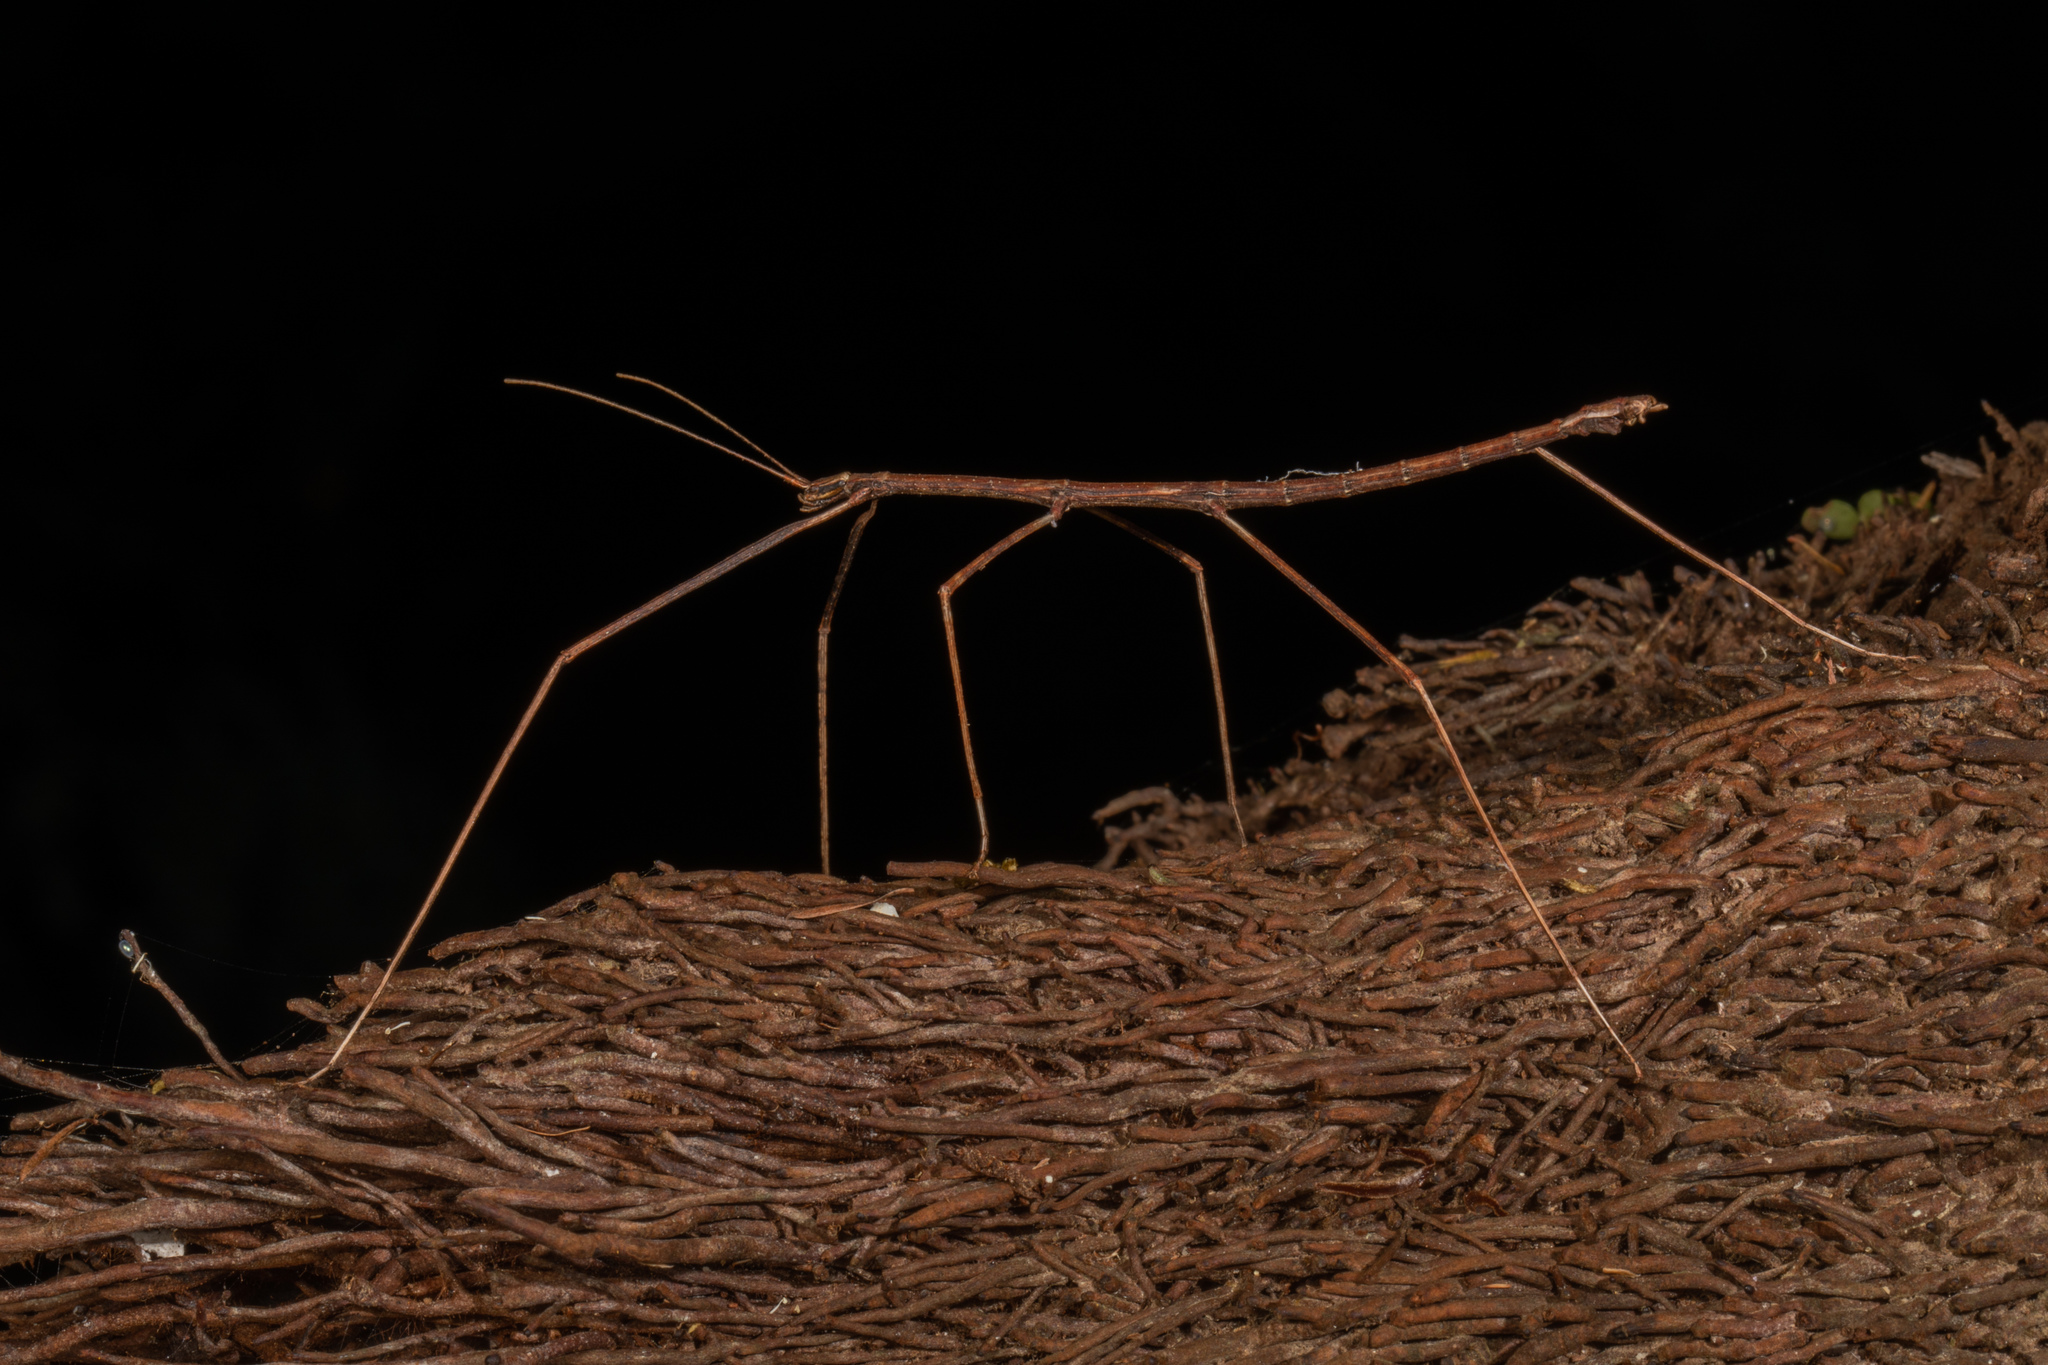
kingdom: Animalia
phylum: Arthropoda
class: Insecta
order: Phasmida
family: Phasmatidae
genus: Asteliaphasma
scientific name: Asteliaphasma jucundum
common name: The kauri forest stick insect
